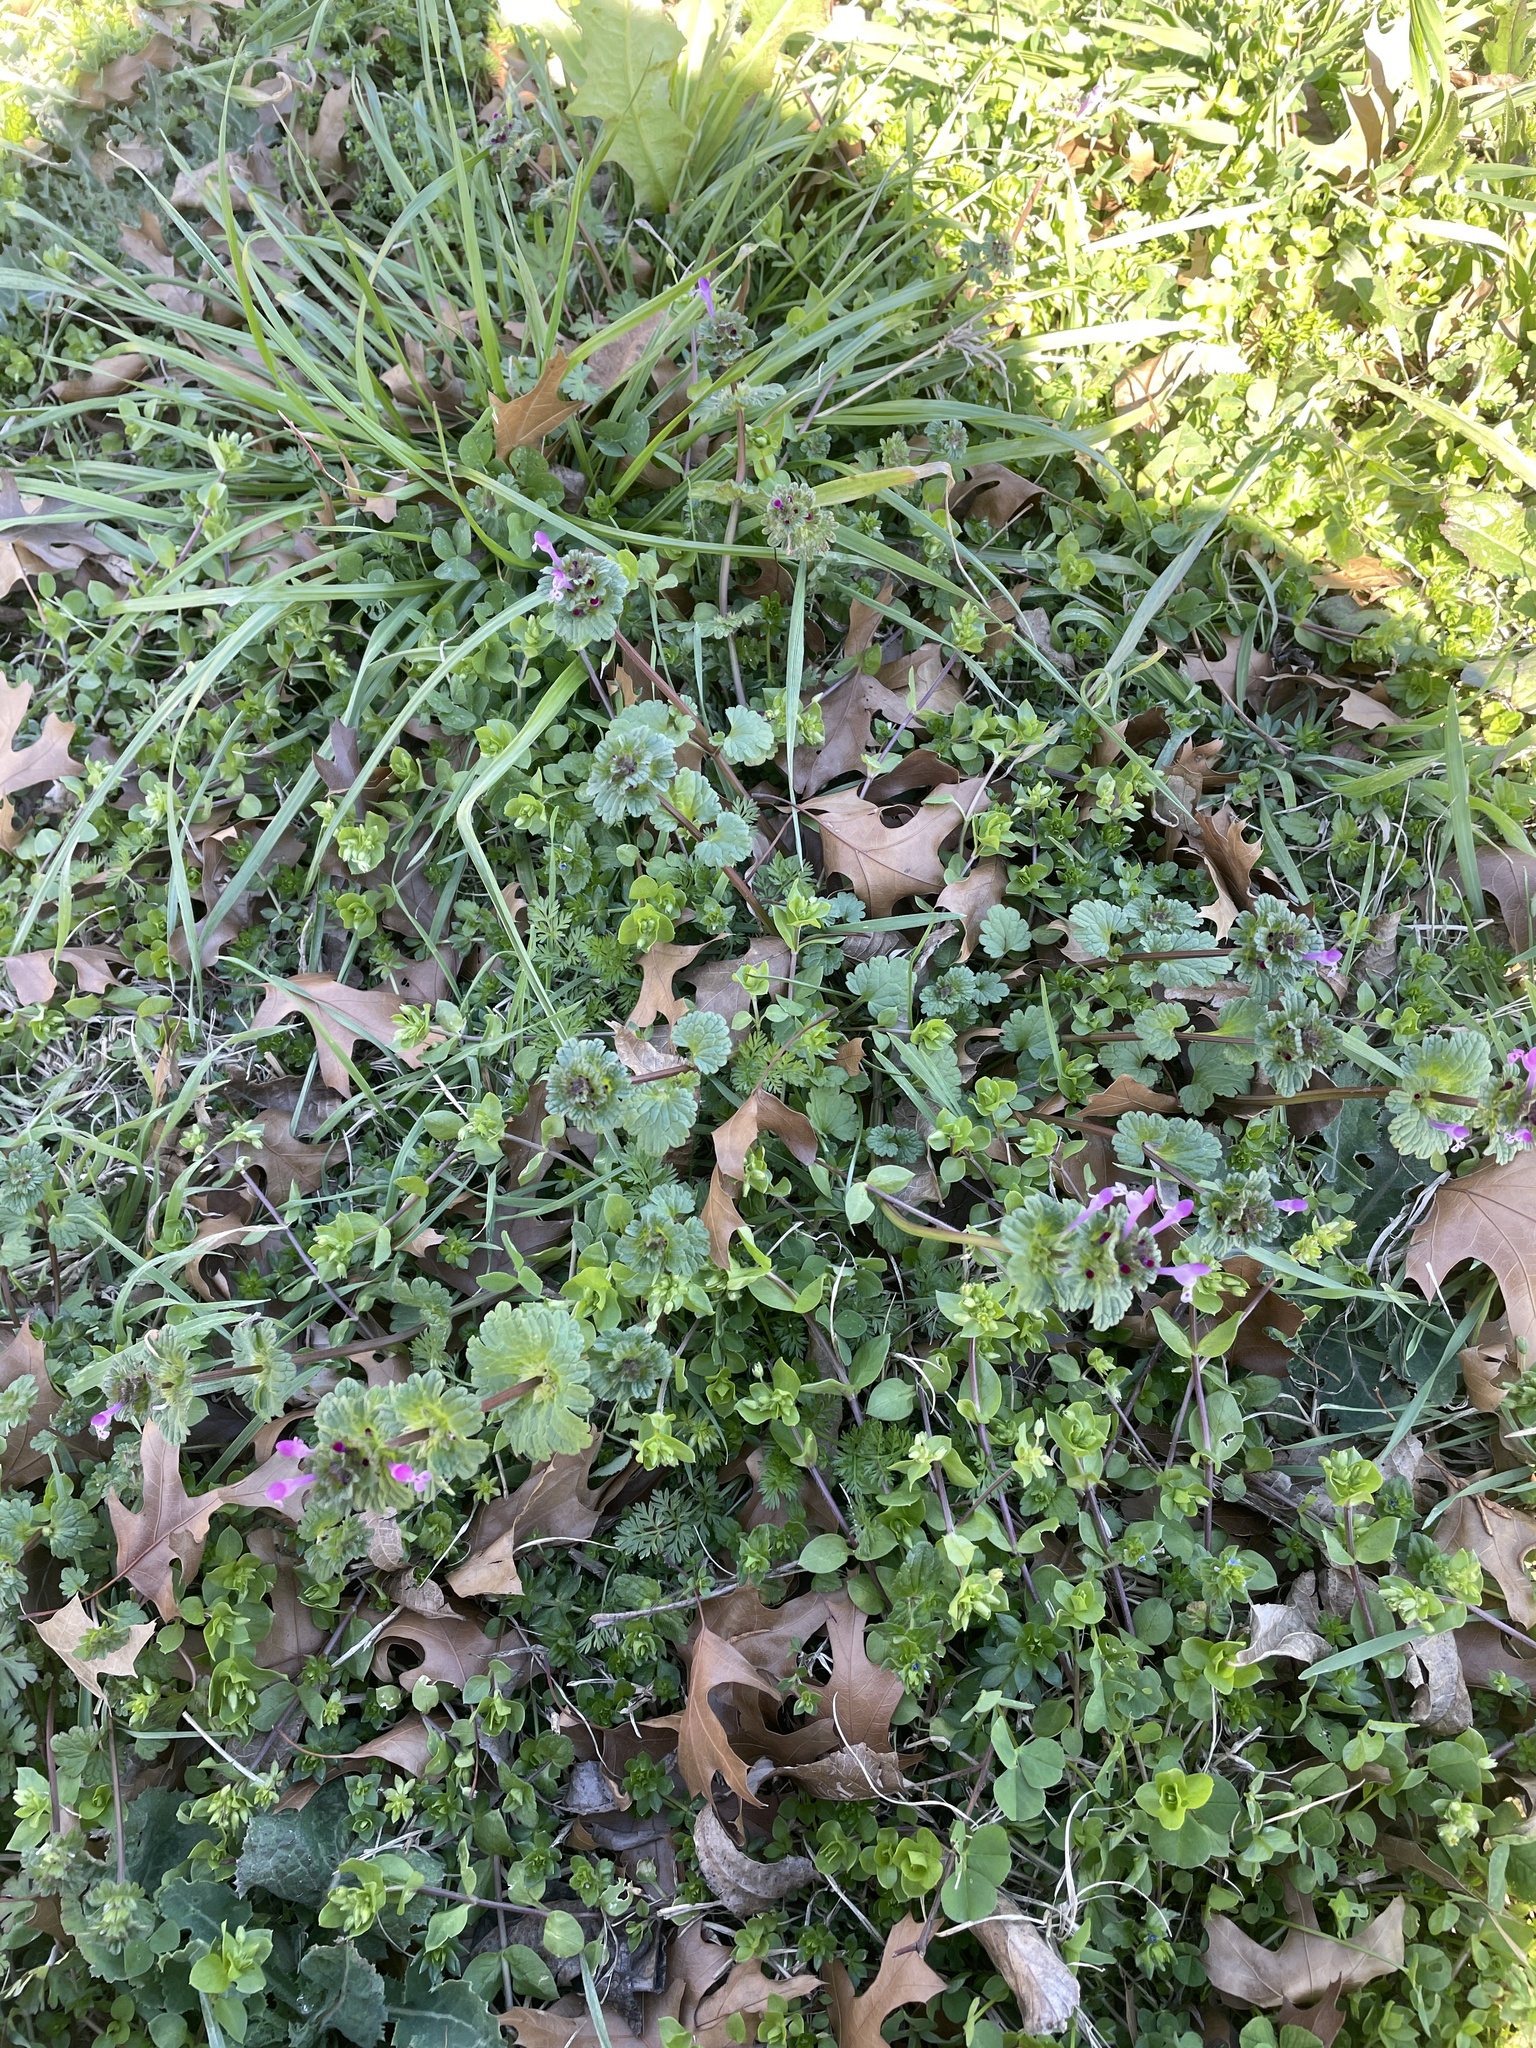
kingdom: Plantae
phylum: Tracheophyta
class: Magnoliopsida
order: Lamiales
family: Lamiaceae
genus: Lamium
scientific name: Lamium amplexicaule
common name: Henbit dead-nettle
